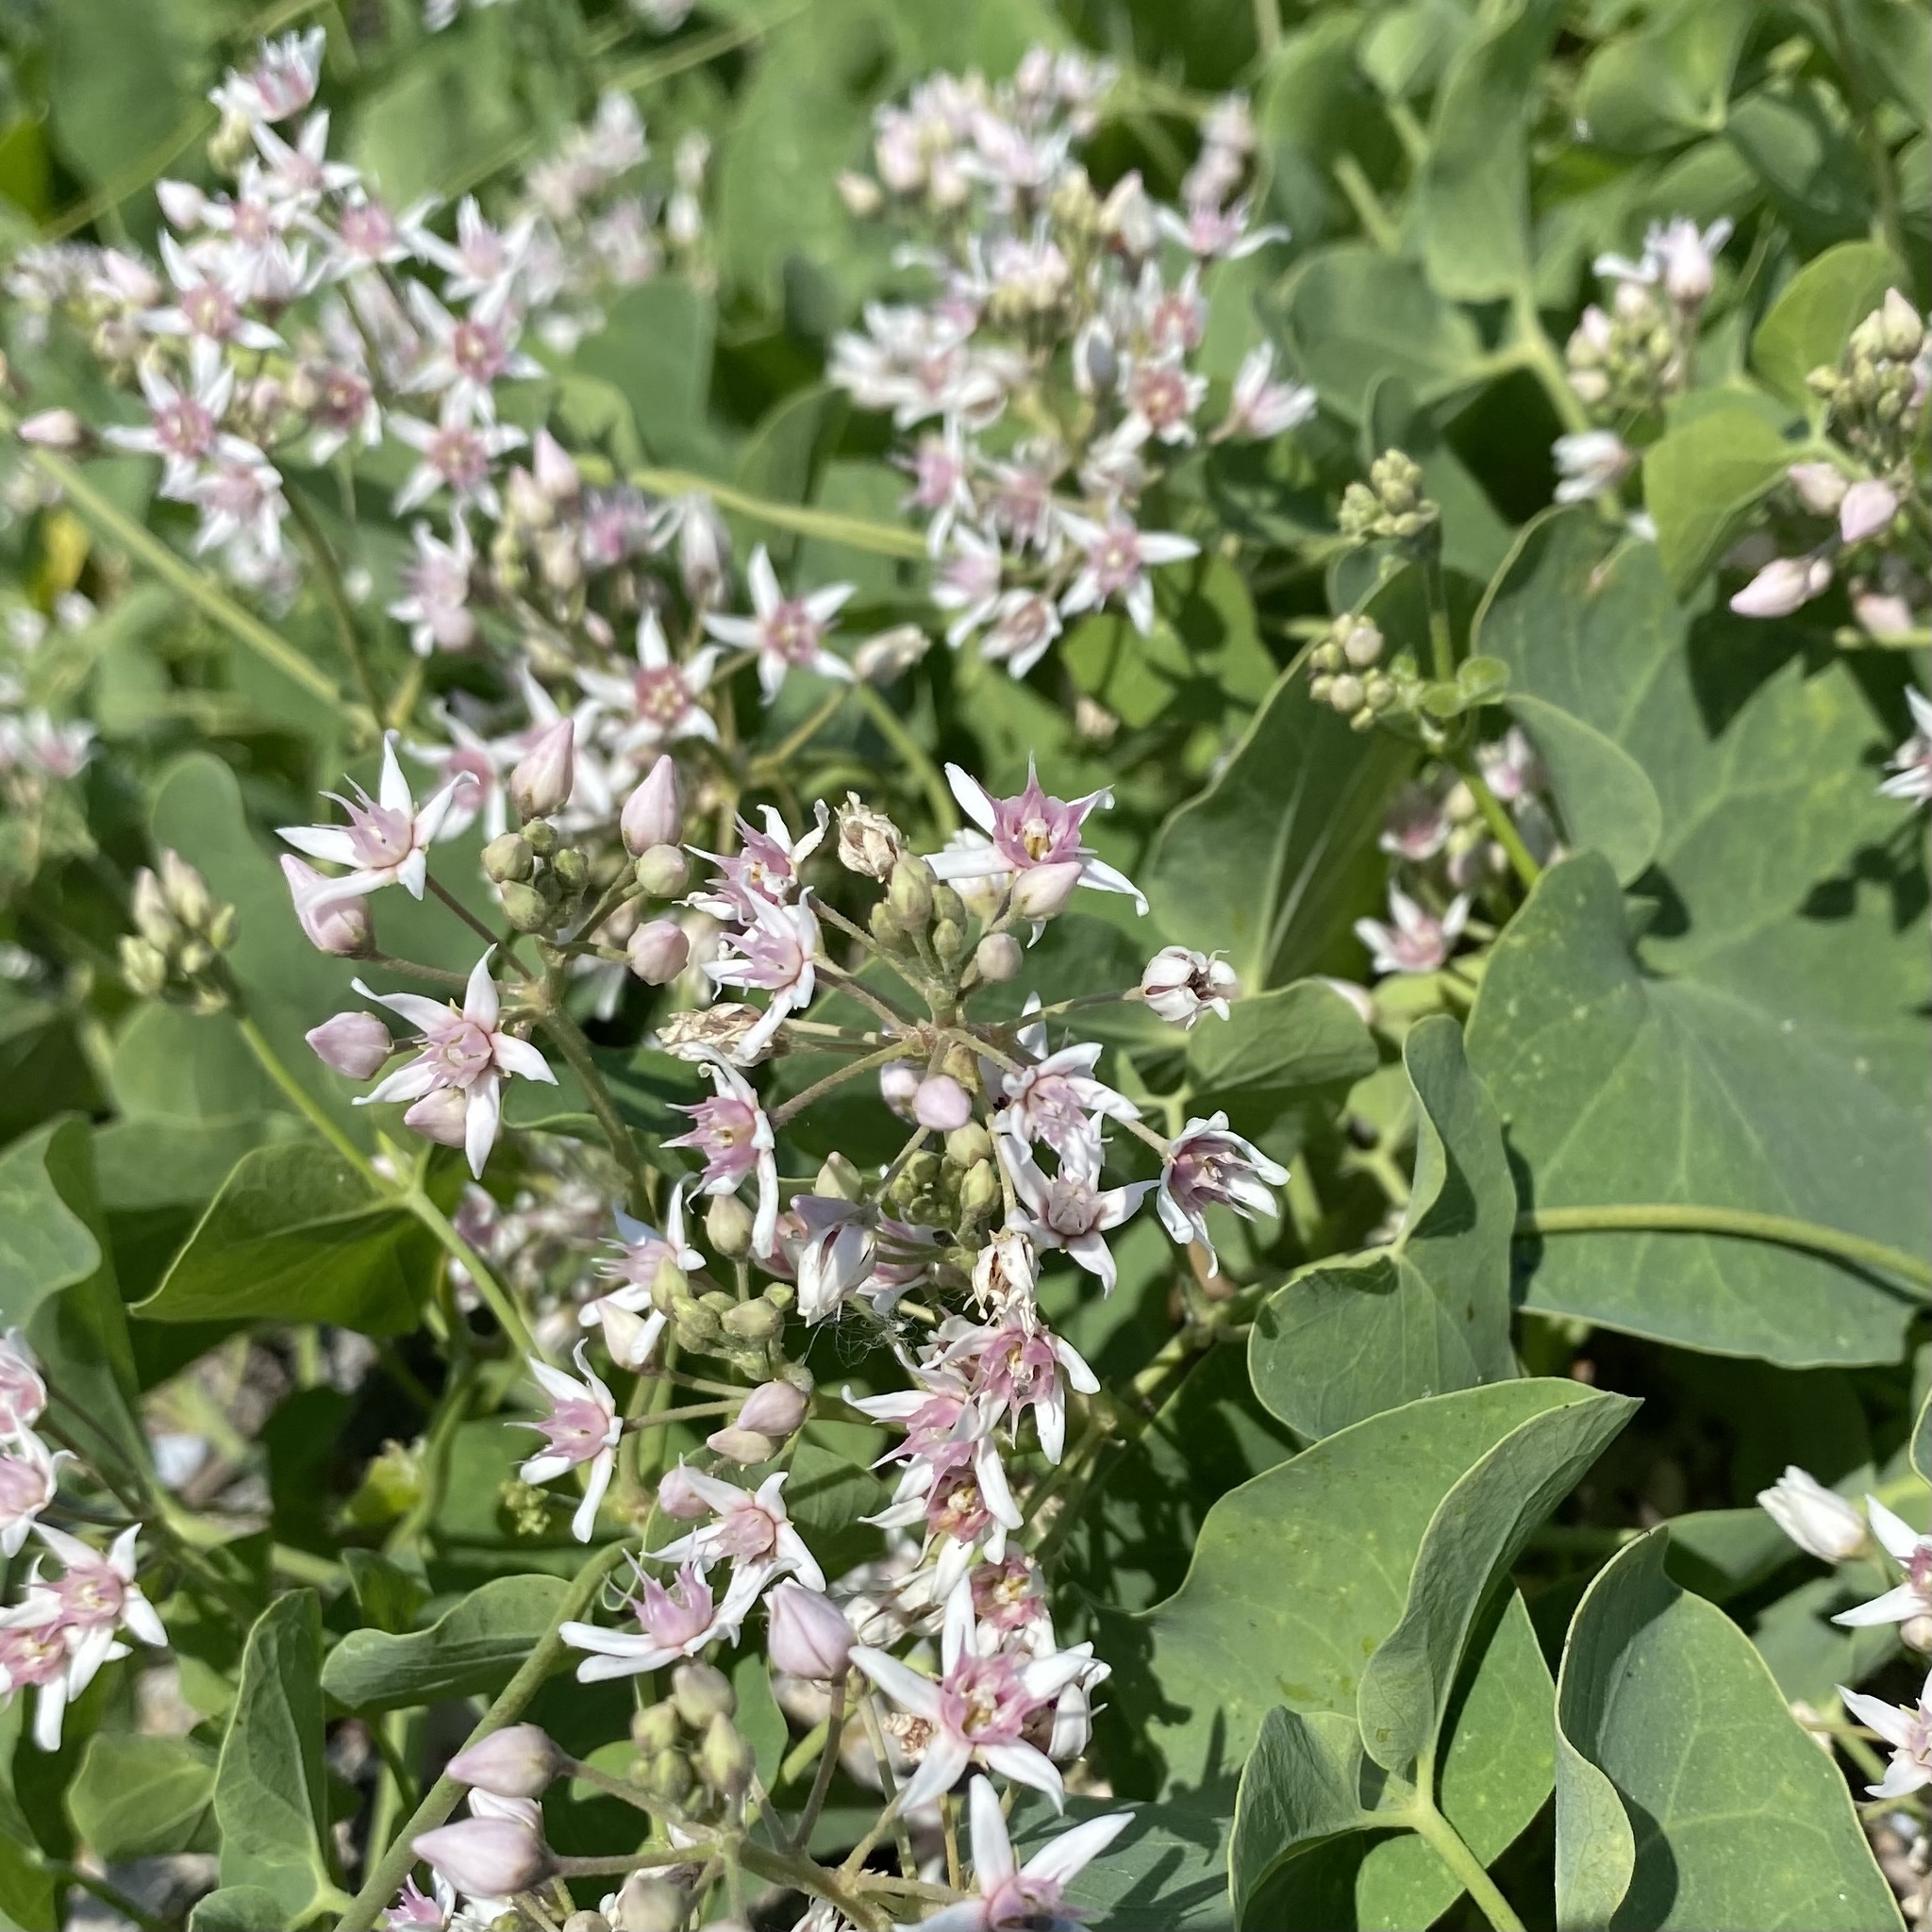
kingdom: Plantae
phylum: Tracheophyta
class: Magnoliopsida
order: Gentianales
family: Apocynaceae
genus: Cynanchum
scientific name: Cynanchum acutum
